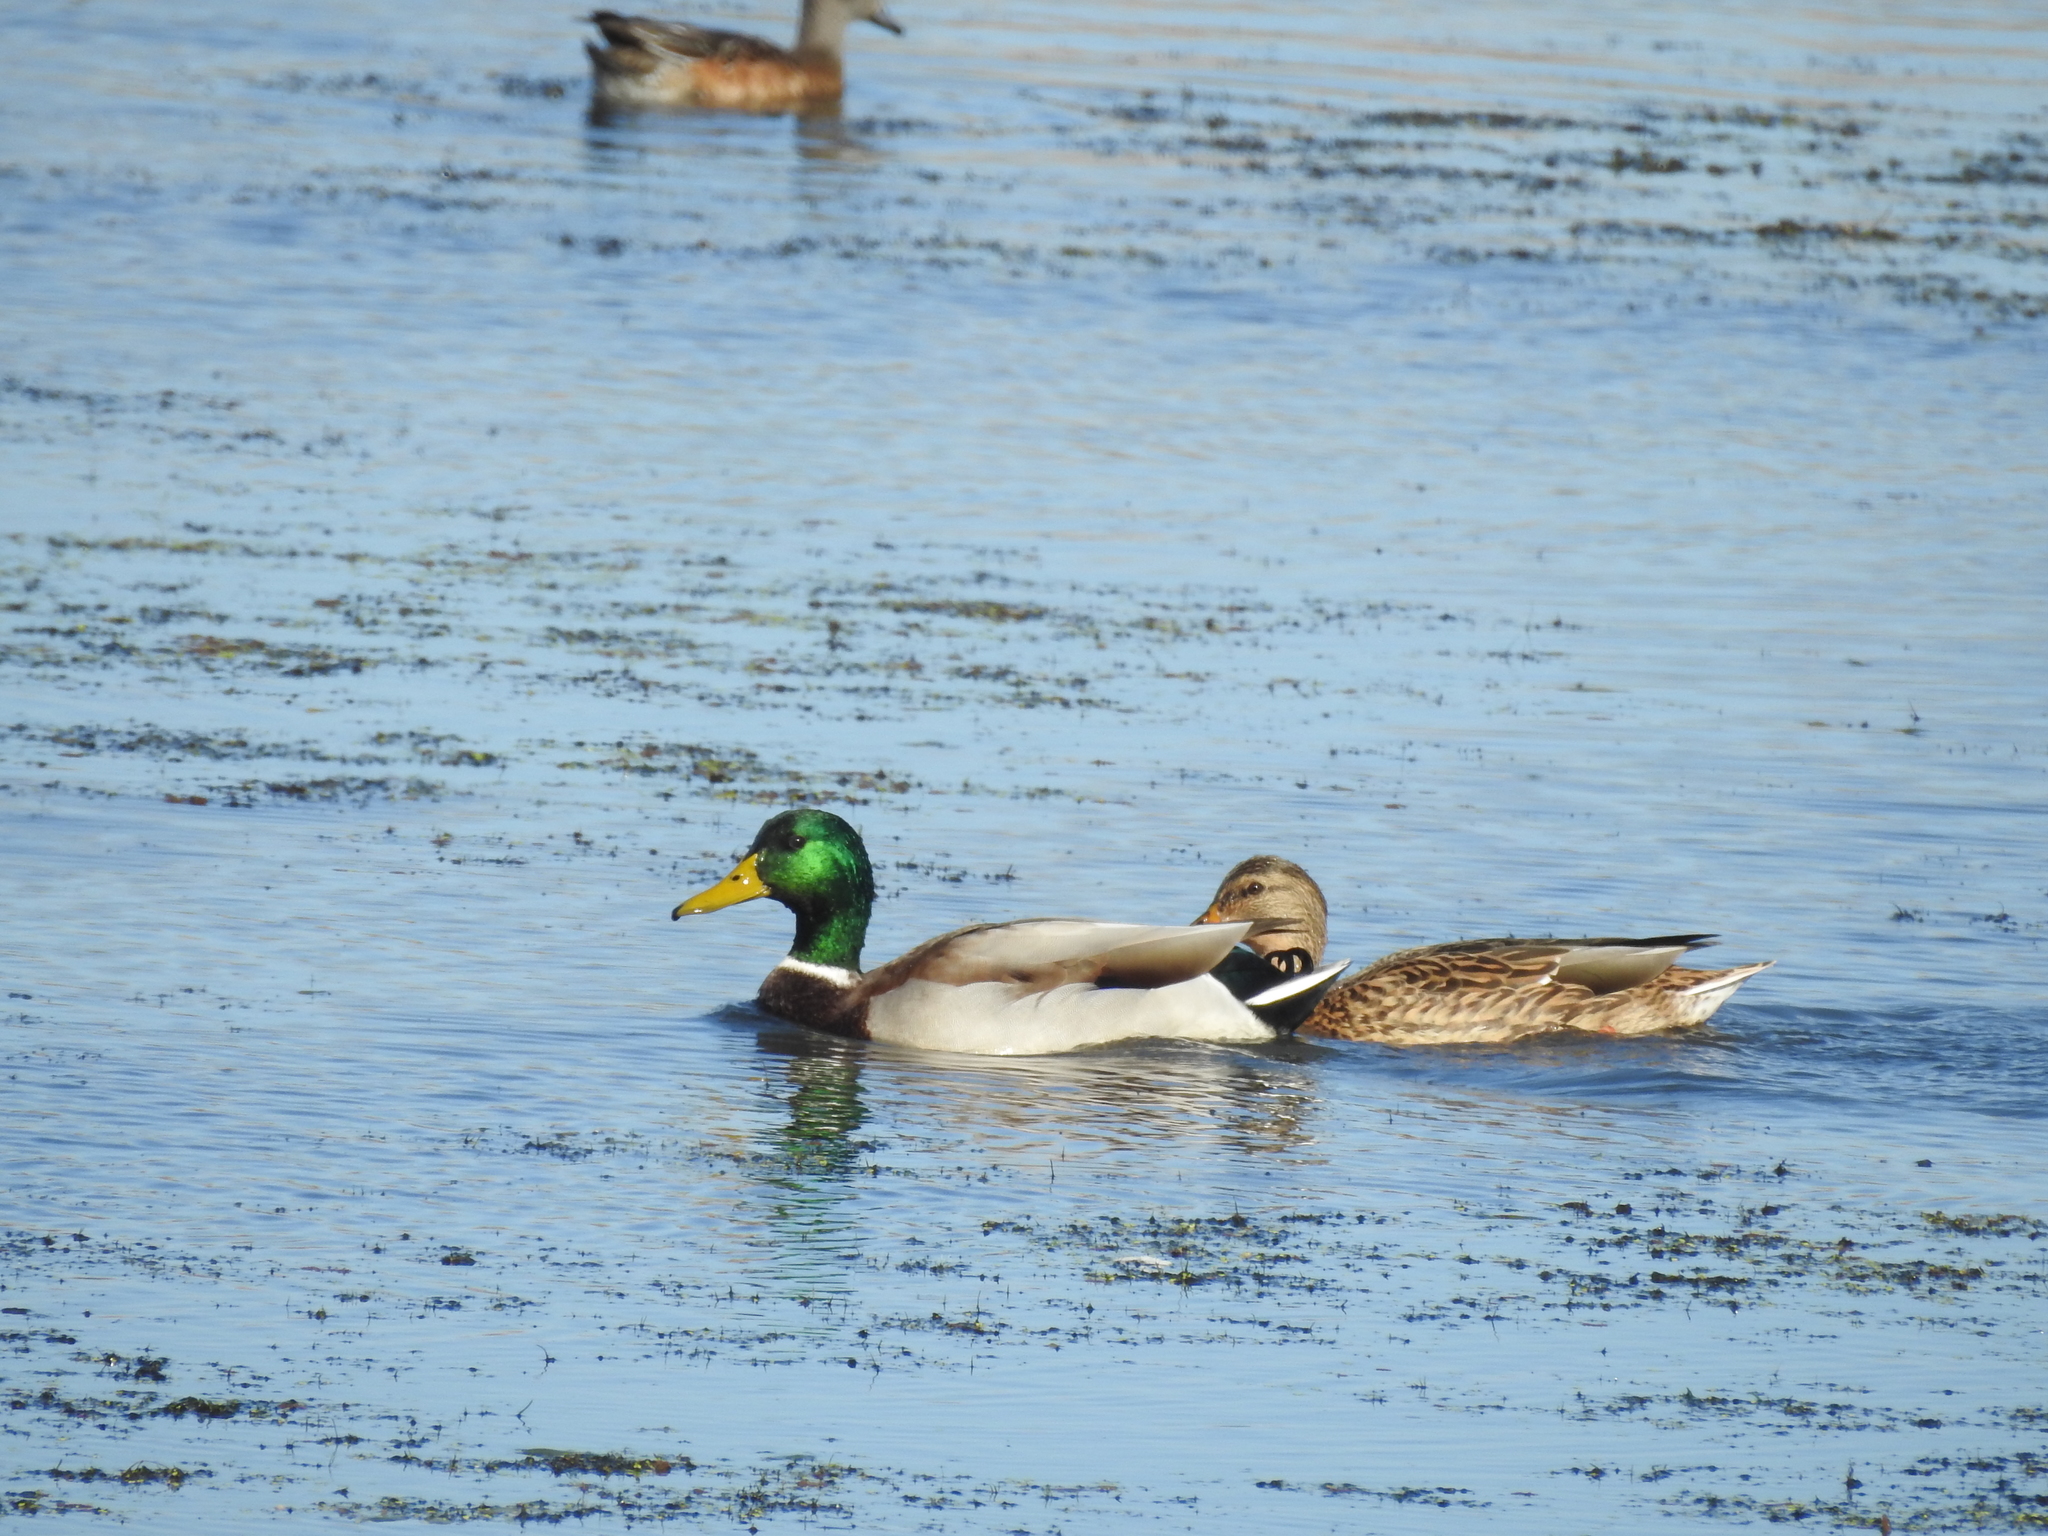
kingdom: Animalia
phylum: Chordata
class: Aves
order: Anseriformes
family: Anatidae
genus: Anas
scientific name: Anas platyrhynchos
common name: Mallard
